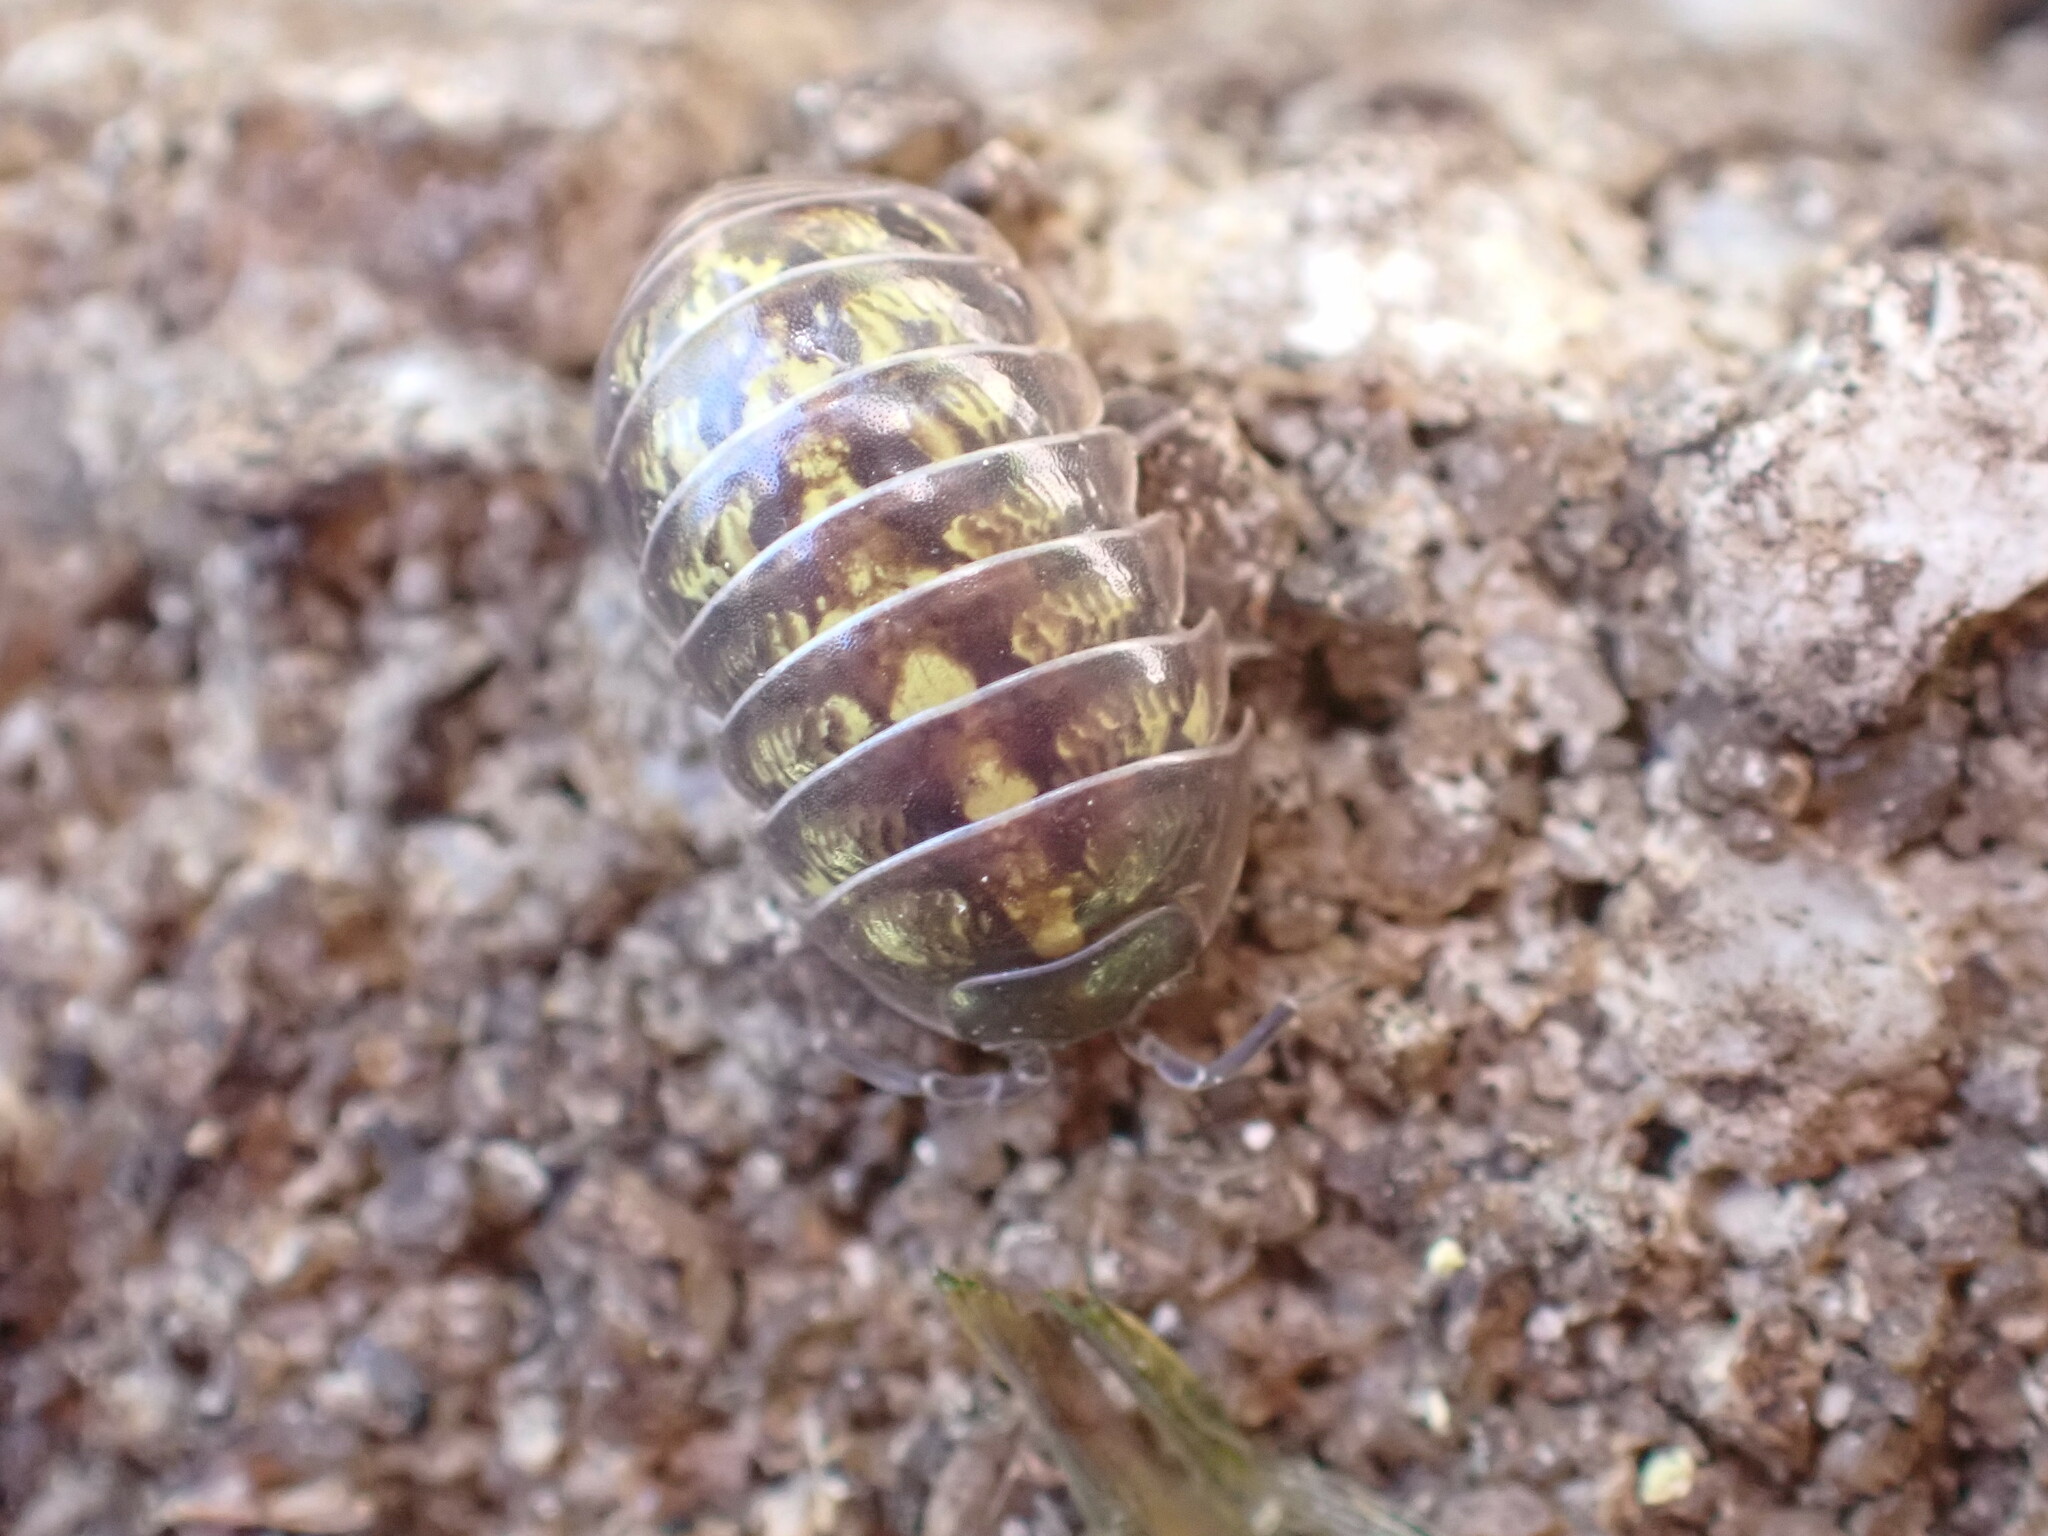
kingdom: Animalia
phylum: Arthropoda
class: Malacostraca
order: Isopoda
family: Armadillidiidae
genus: Armadillidium
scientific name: Armadillidium vulgare
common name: Common pill woodlouse
